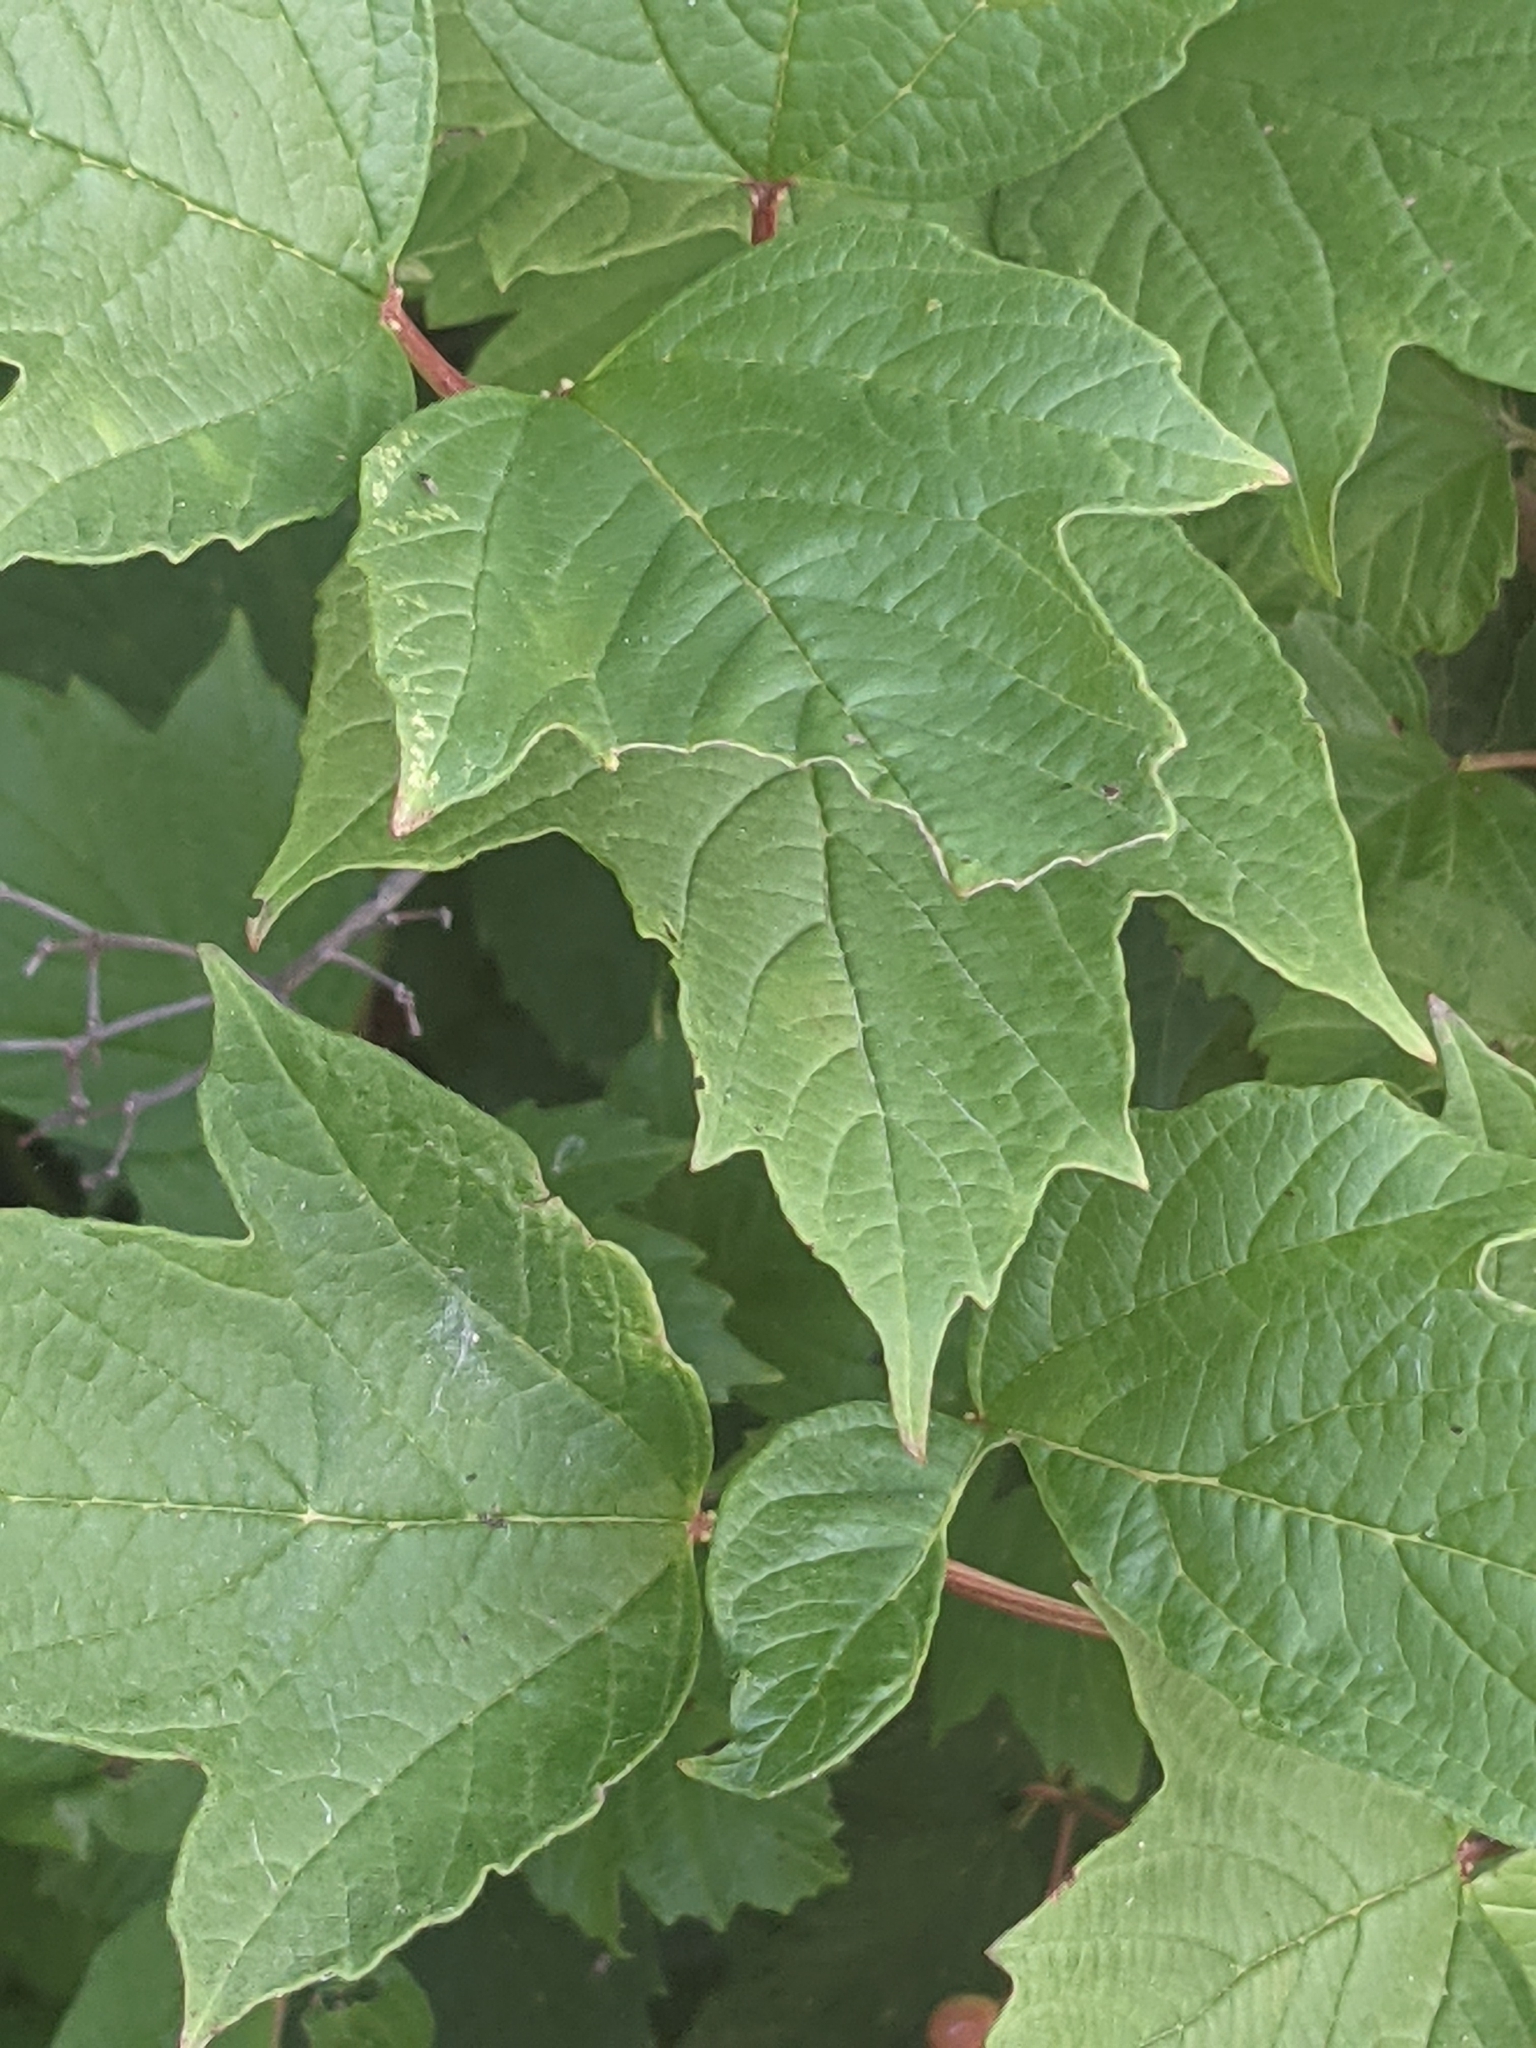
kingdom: Plantae
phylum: Tracheophyta
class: Magnoliopsida
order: Dipsacales
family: Viburnaceae
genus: Viburnum
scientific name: Viburnum opulus
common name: Guelder-rose
